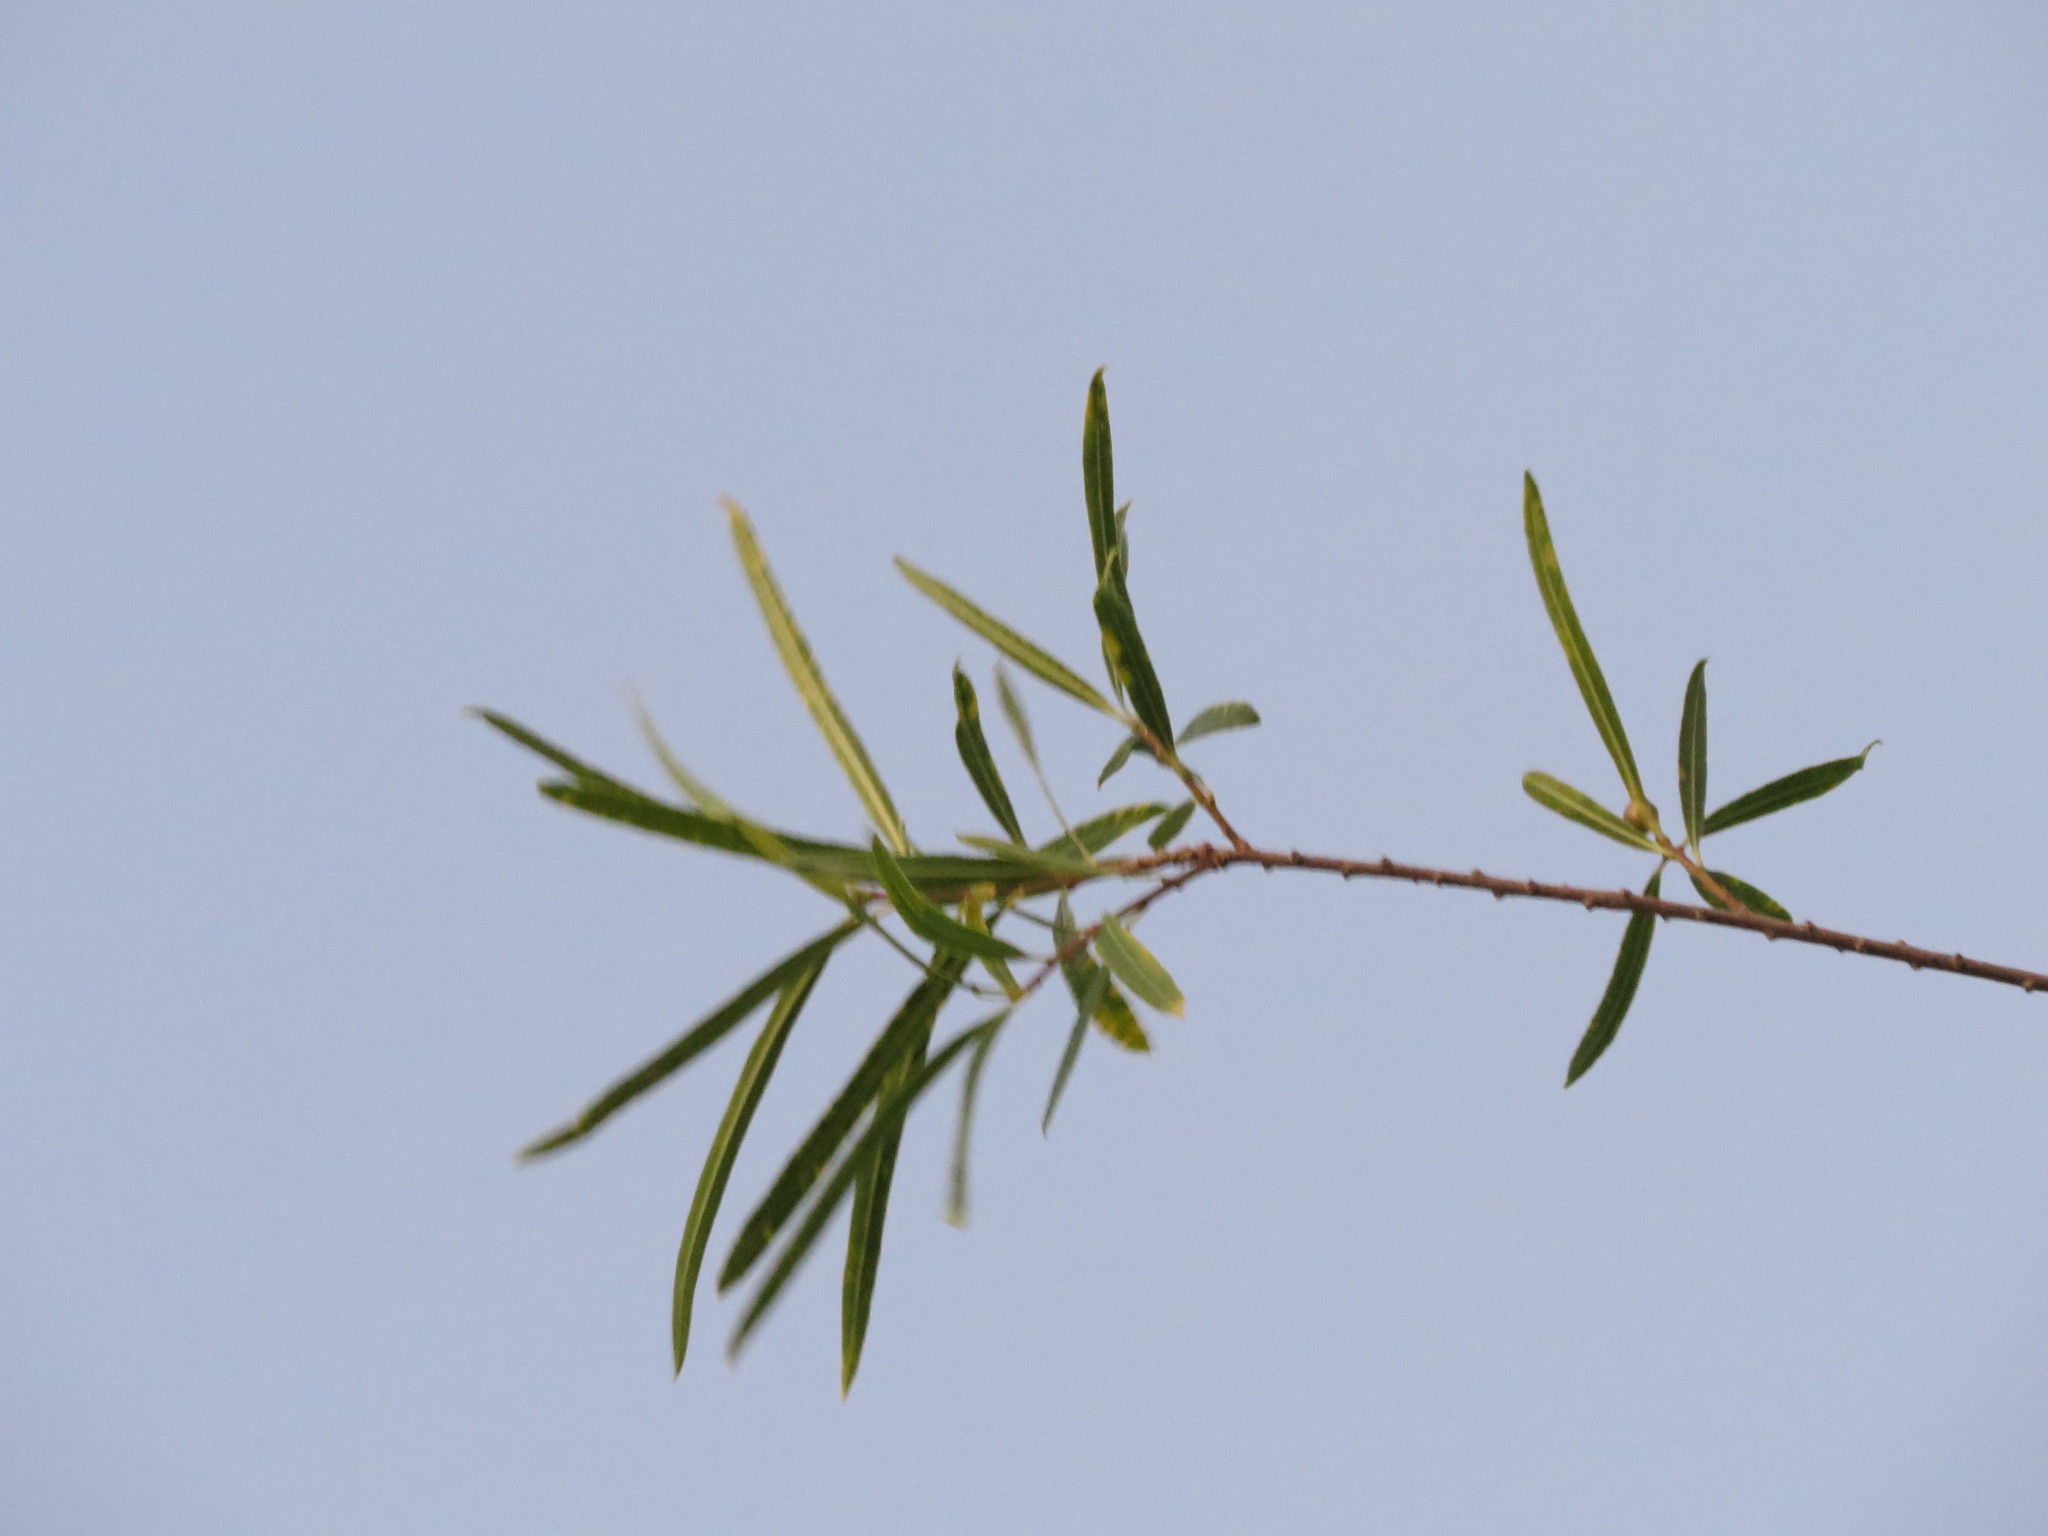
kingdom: Plantae
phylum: Tracheophyta
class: Magnoliopsida
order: Malpighiales
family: Euphorbiaceae
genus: Sapium
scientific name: Sapium haematospermum
